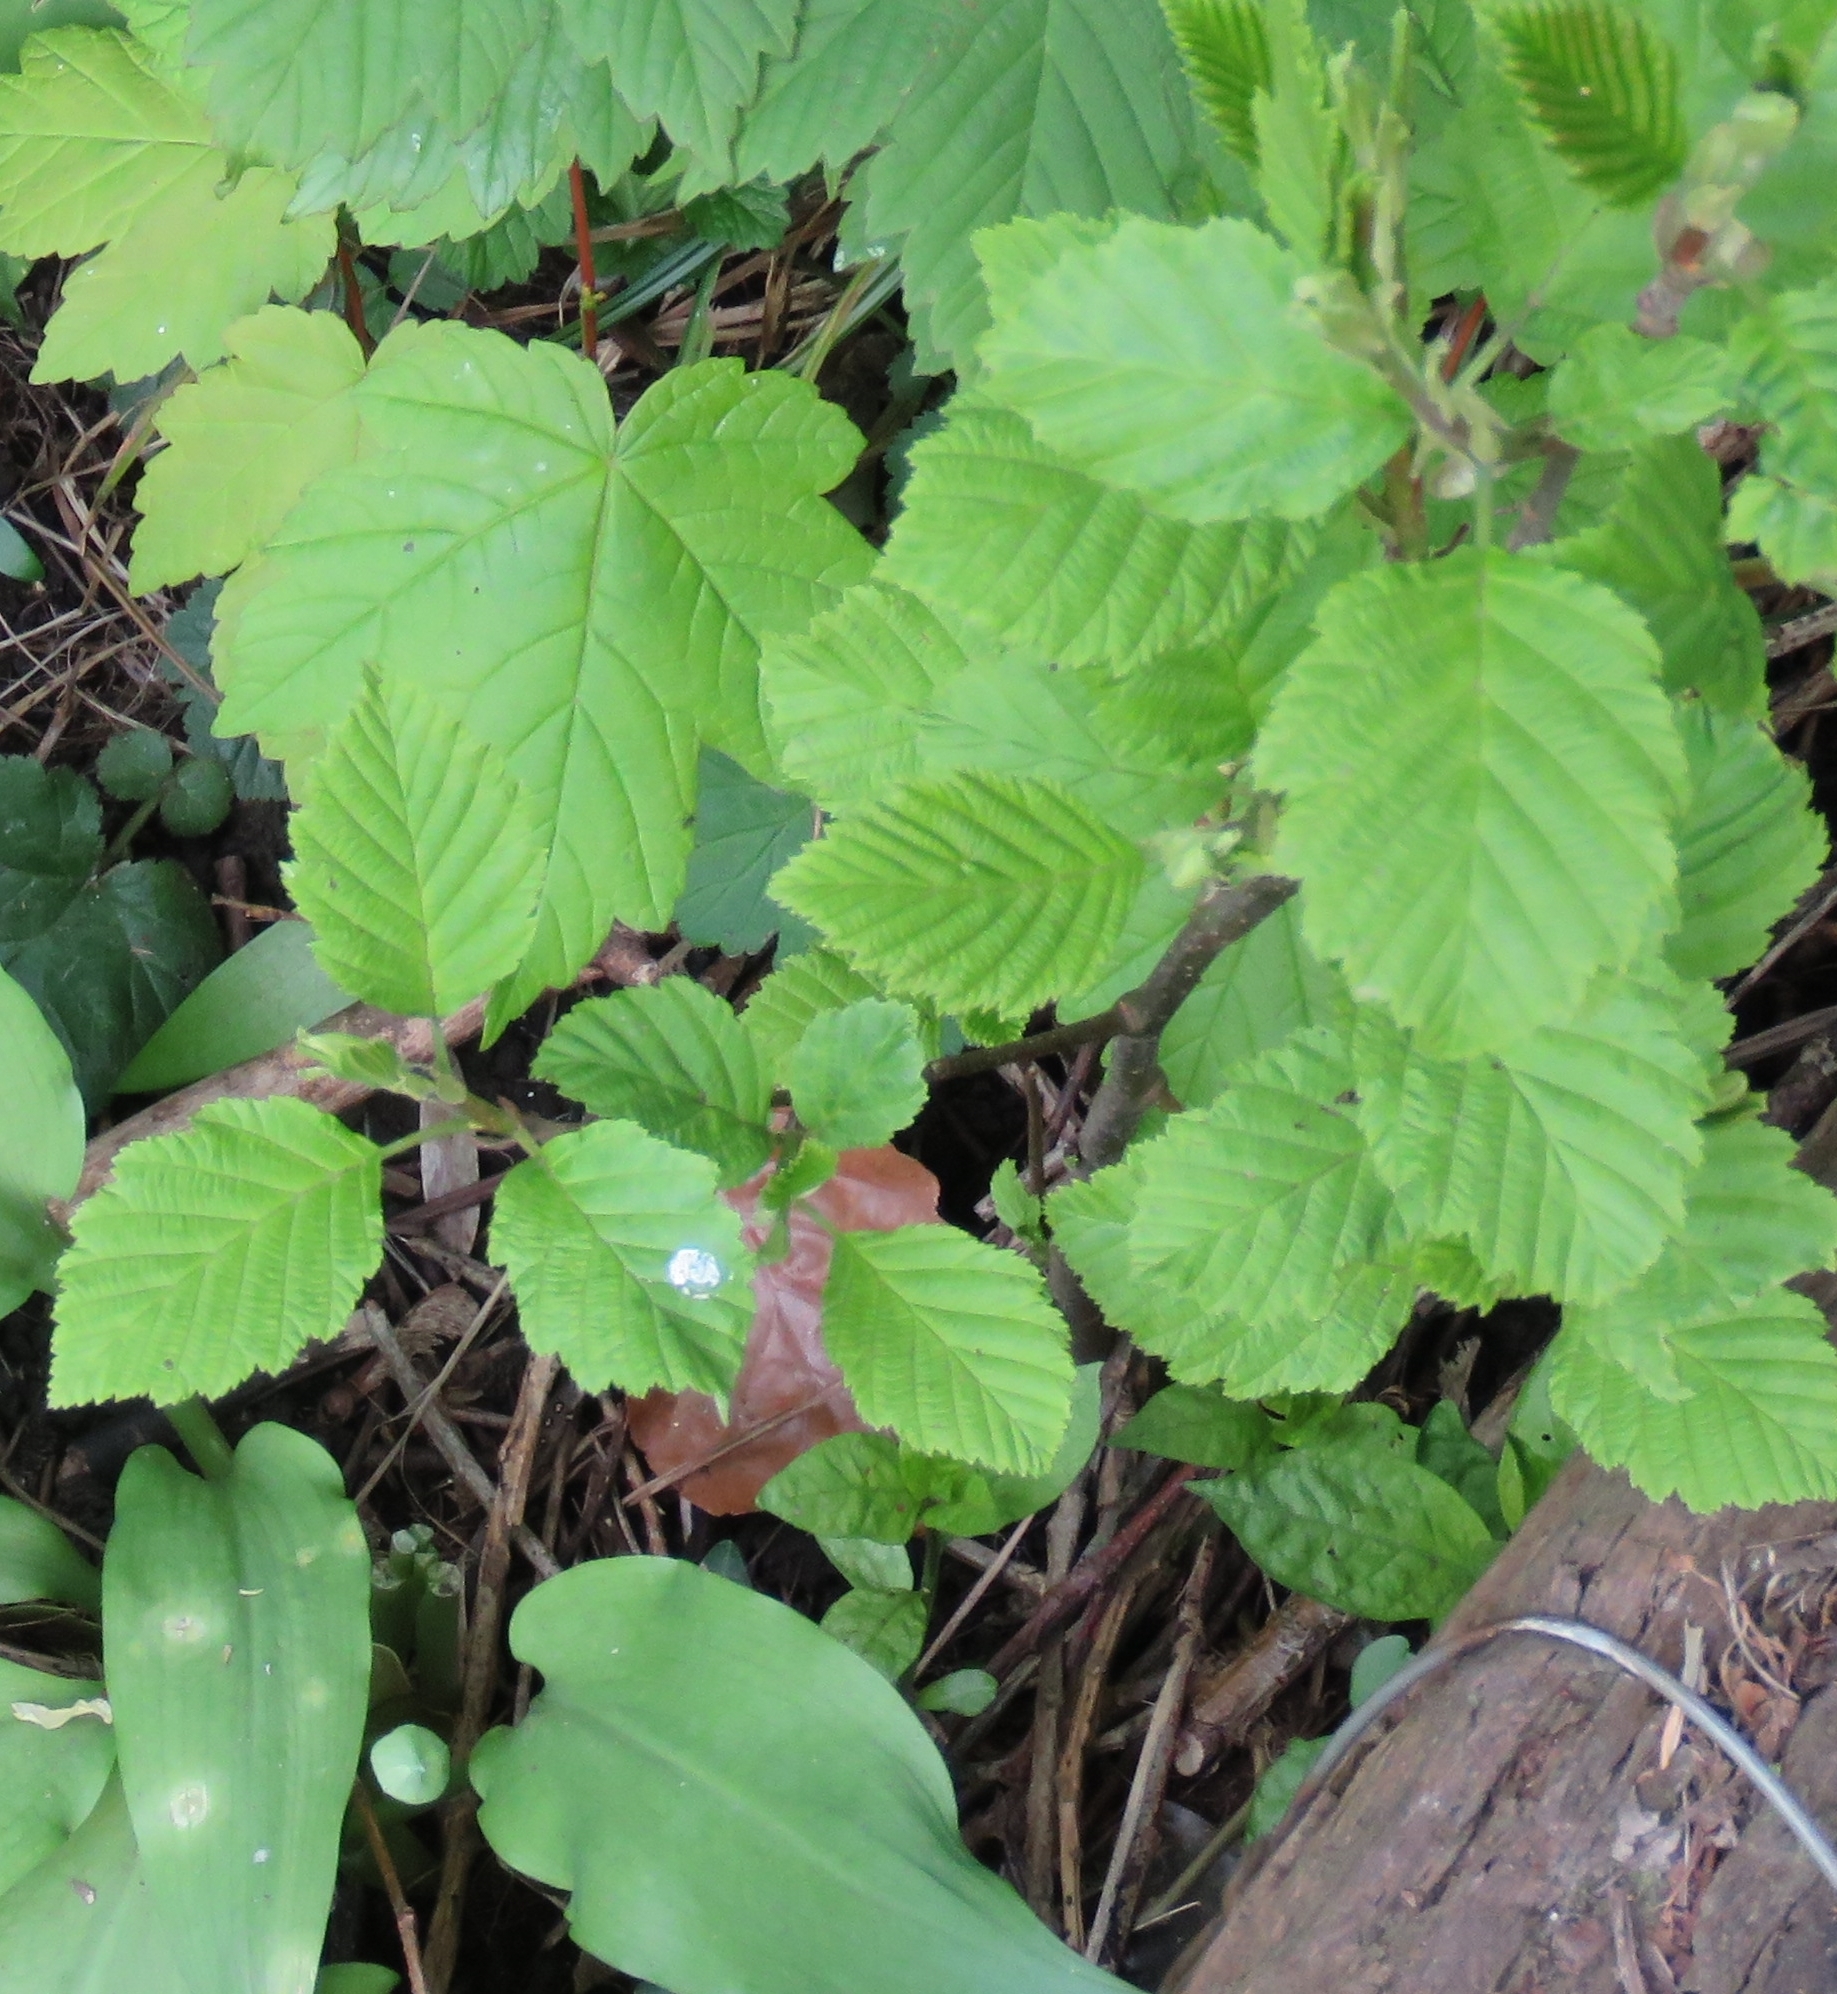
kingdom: Plantae
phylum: Tracheophyta
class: Magnoliopsida
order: Sapindales
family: Sapindaceae
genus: Acer
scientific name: Acer pseudoplatanus
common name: Sycamore
